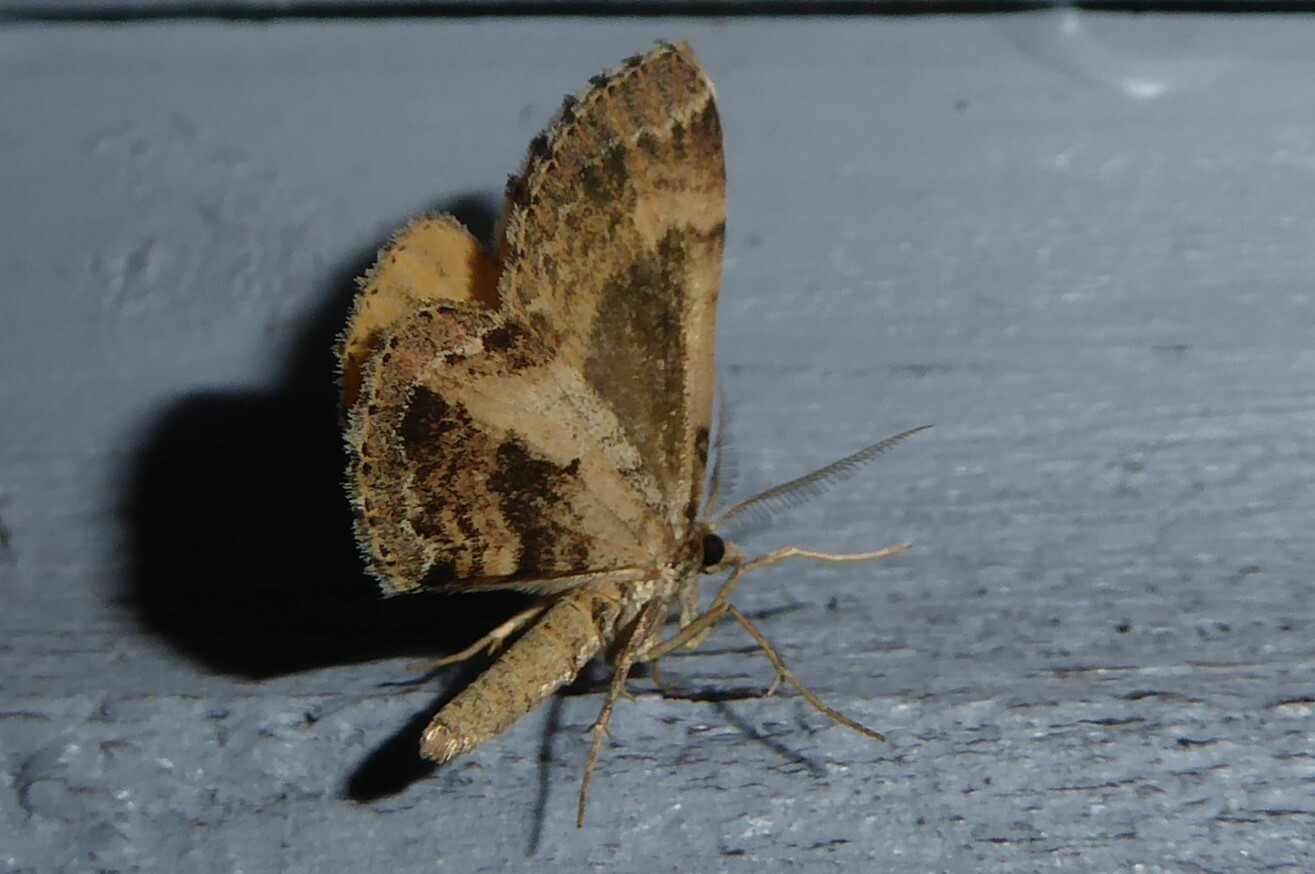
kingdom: Animalia
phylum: Arthropoda
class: Insecta
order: Lepidoptera
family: Geometridae
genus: Asaphodes
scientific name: Asaphodes aegrota
